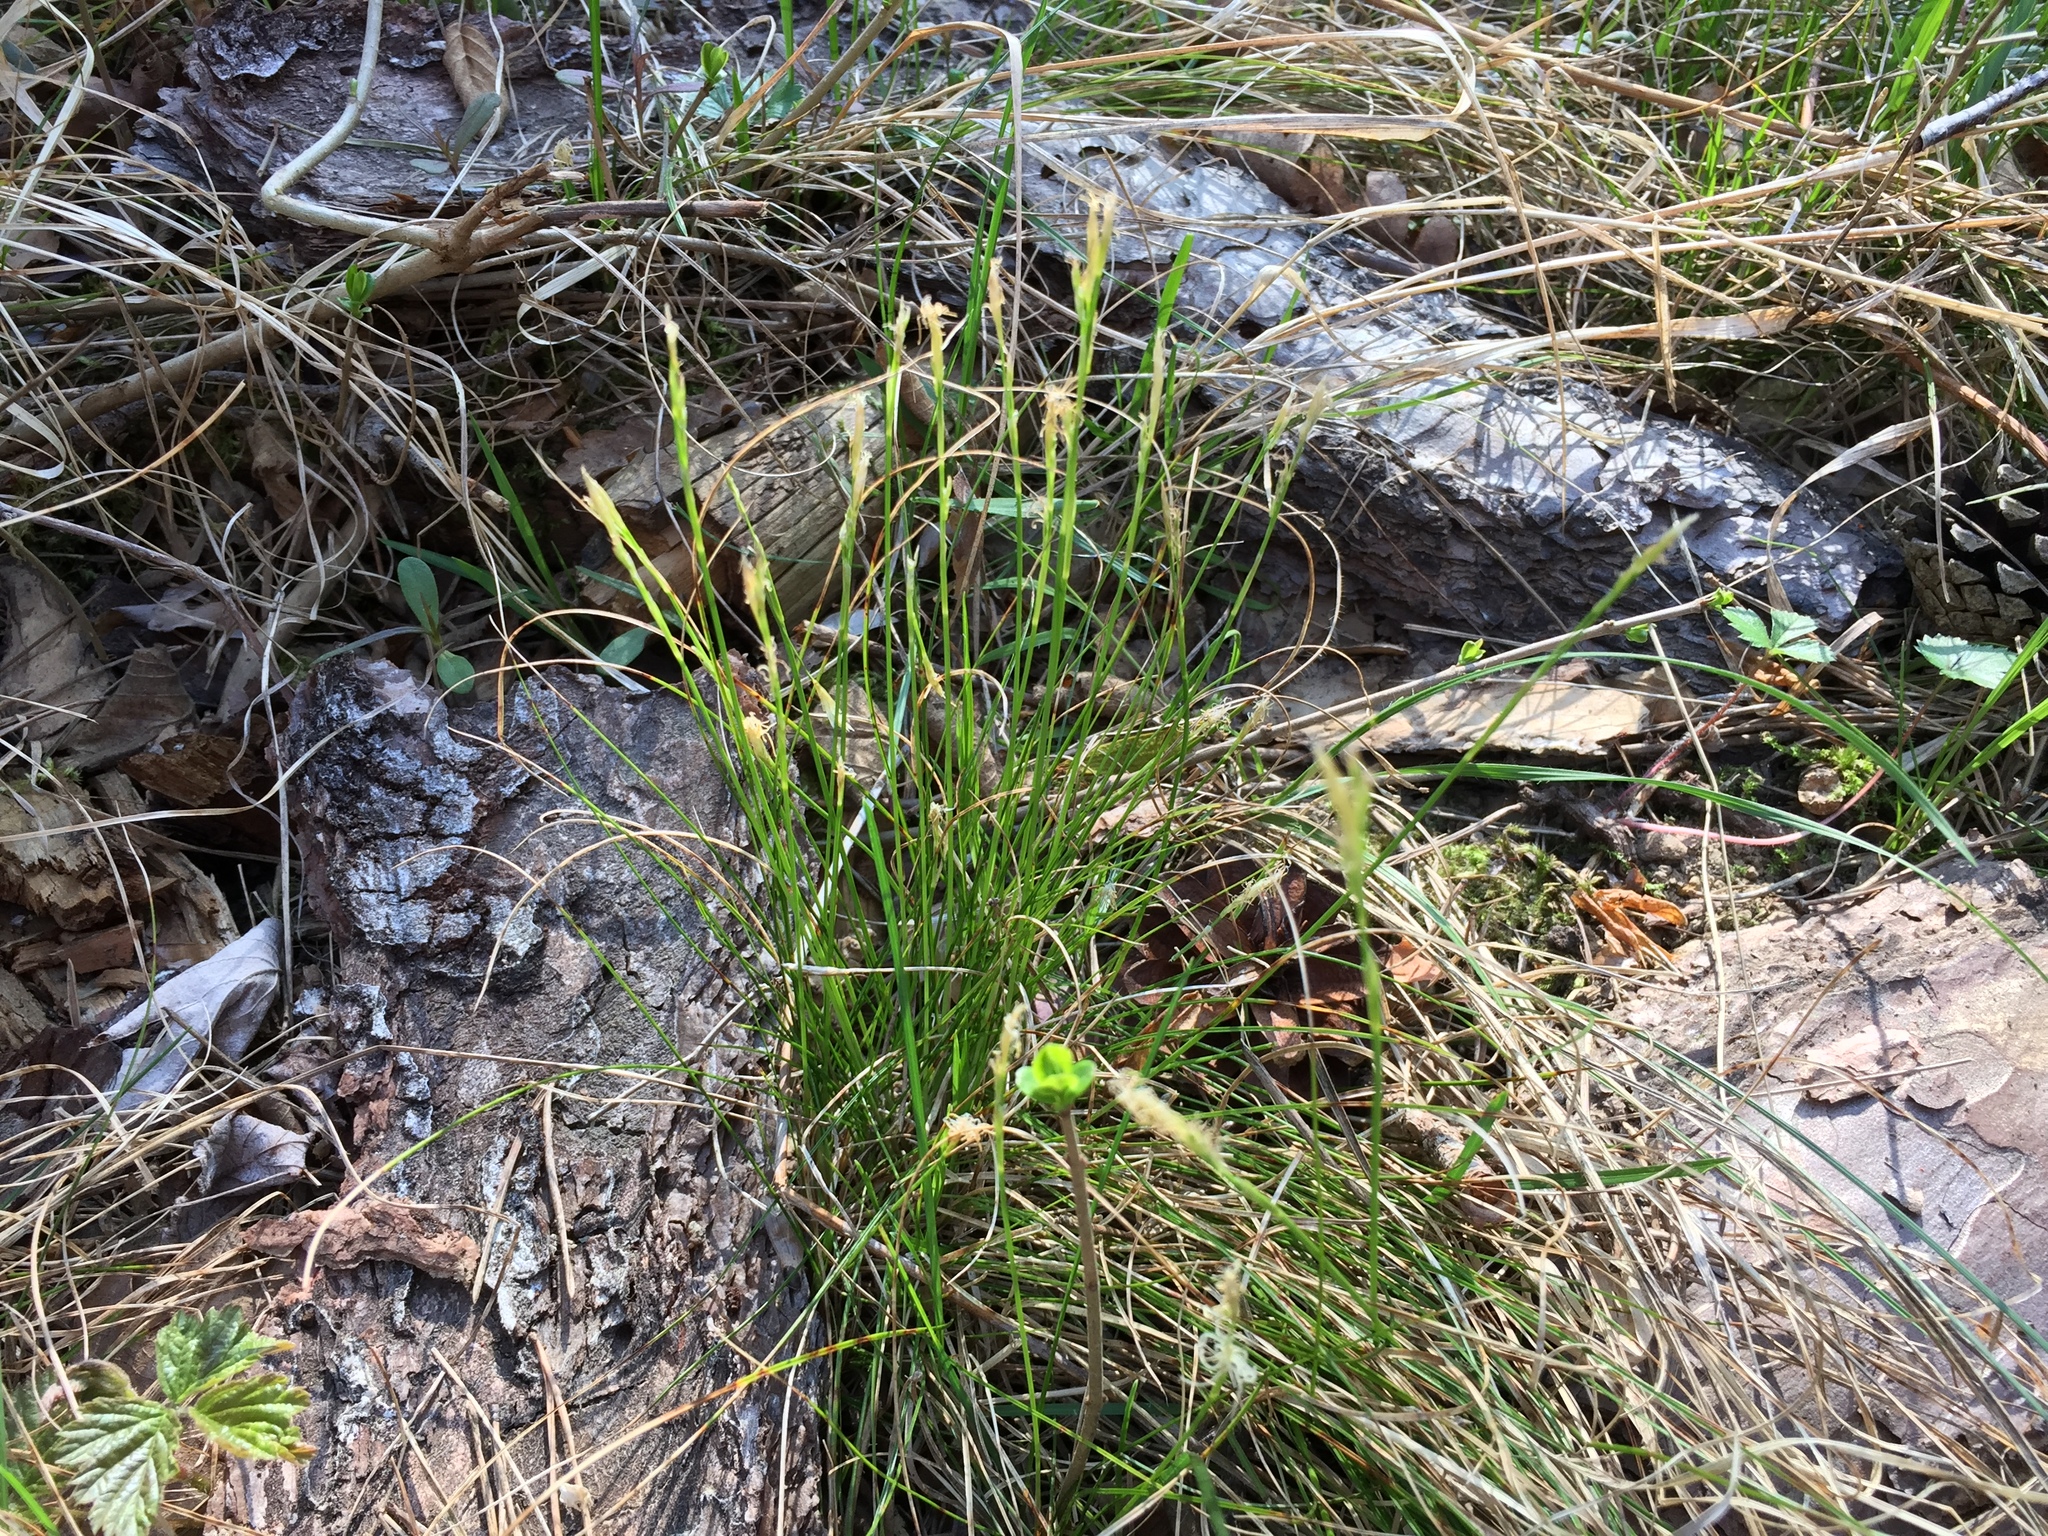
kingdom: Plantae
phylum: Tracheophyta
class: Liliopsida
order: Poales
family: Cyperaceae
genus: Carex
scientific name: Carex alba
